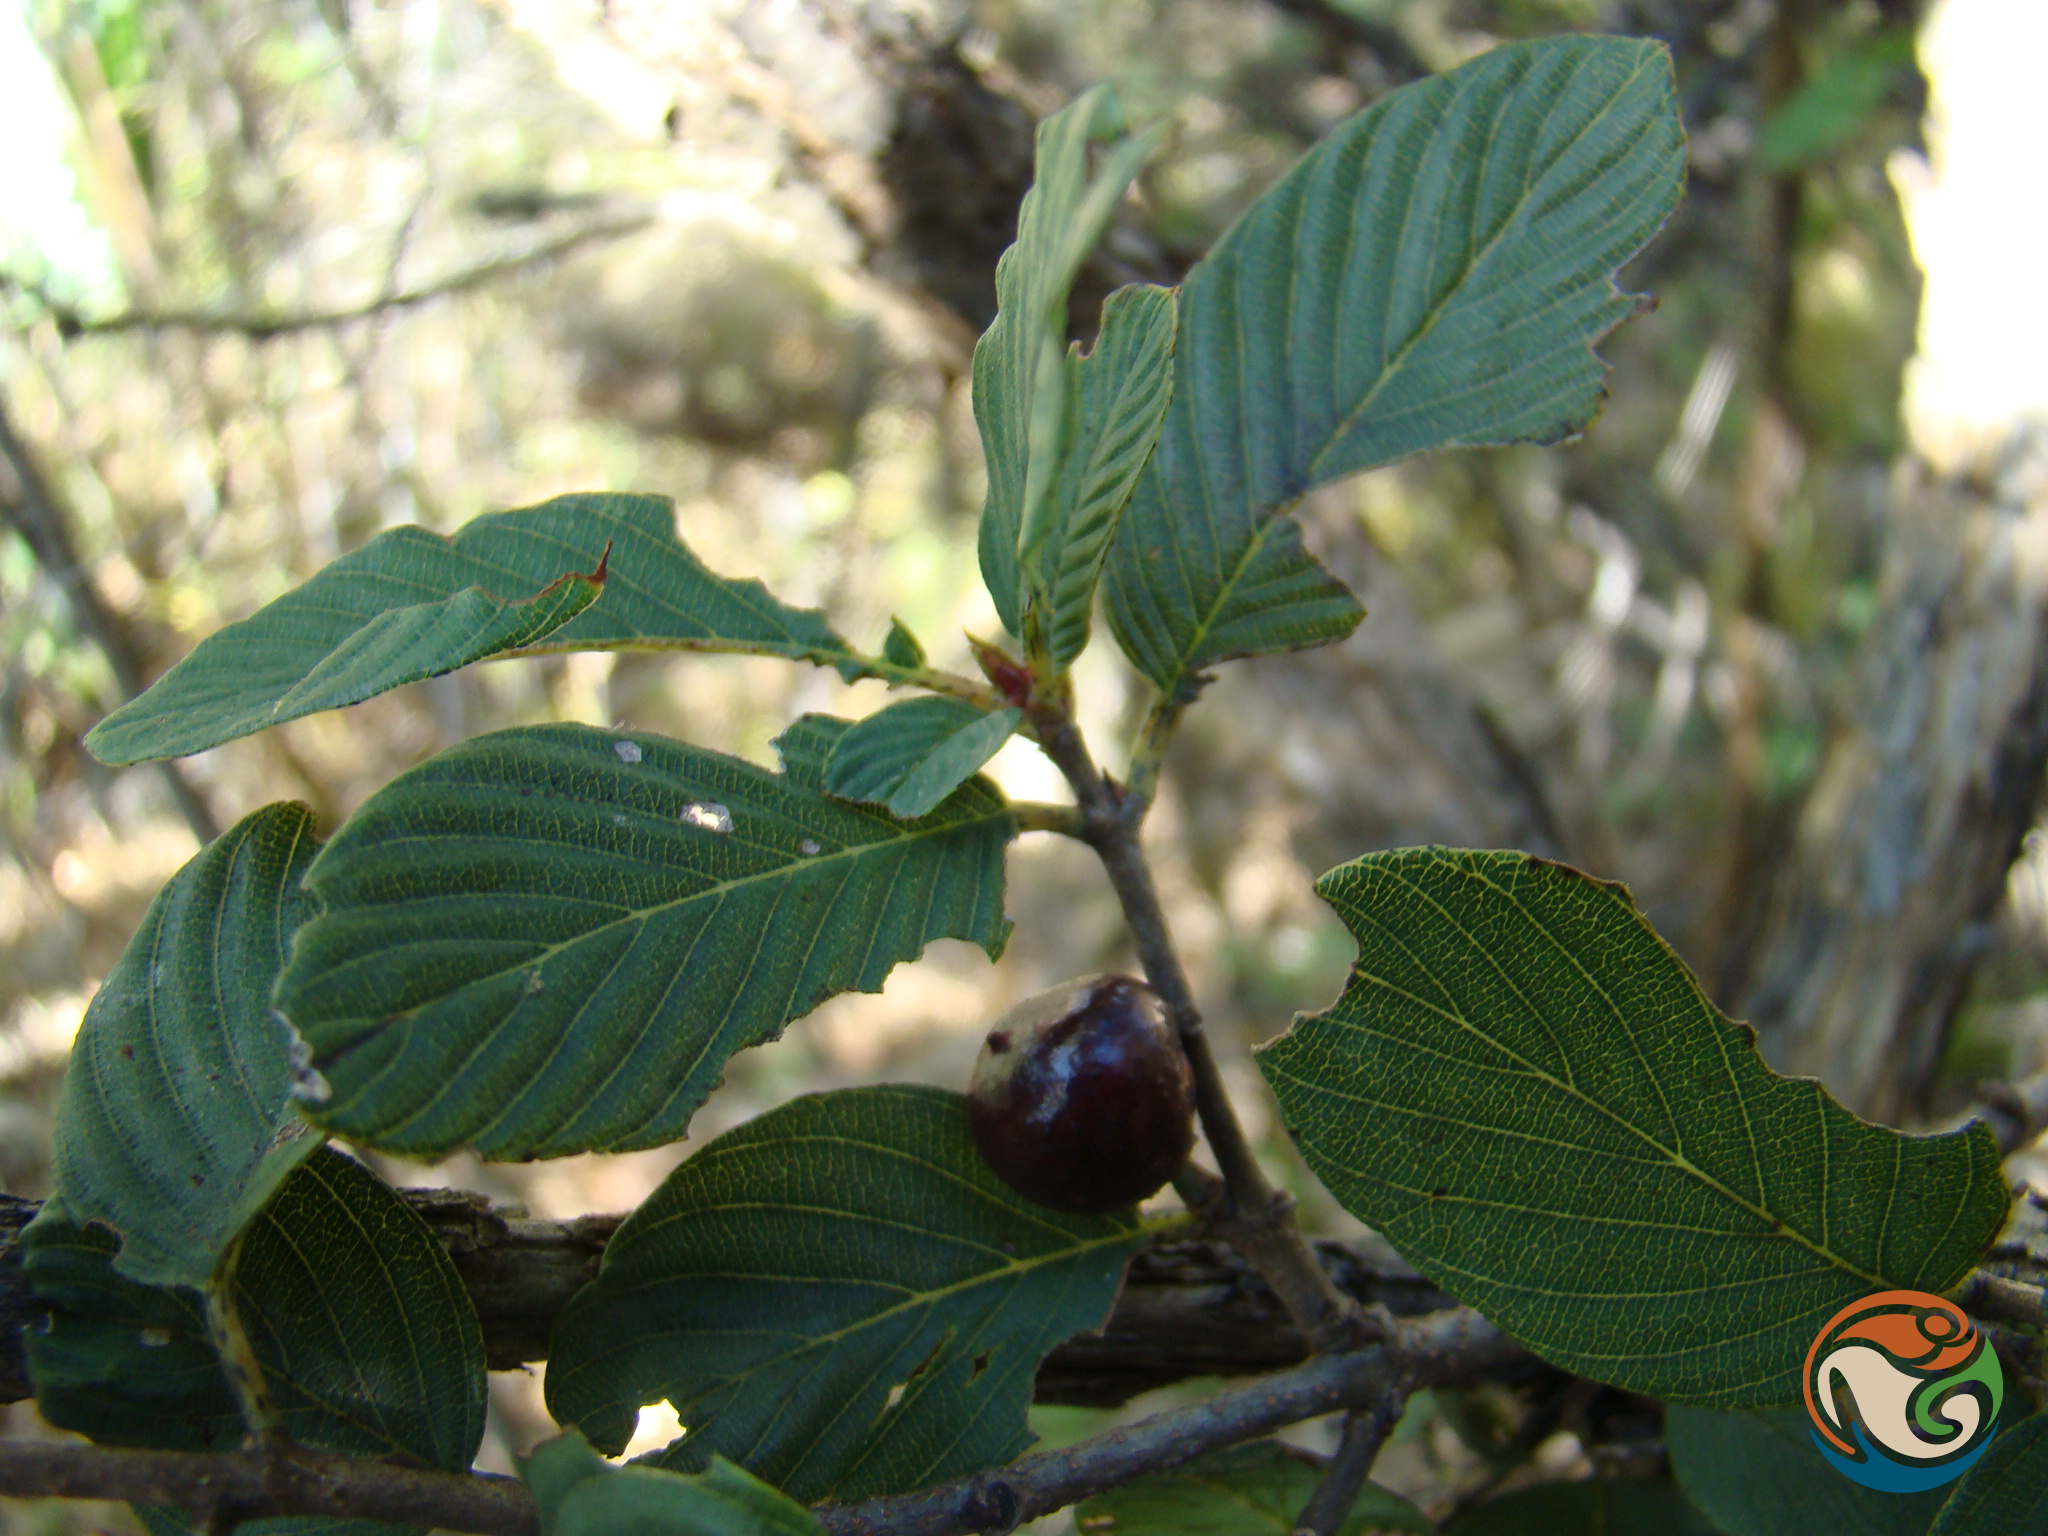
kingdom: Plantae
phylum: Tracheophyta
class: Magnoliopsida
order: Rosales
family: Rhamnaceae
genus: Karwinskia
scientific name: Karwinskia humboldtiana
